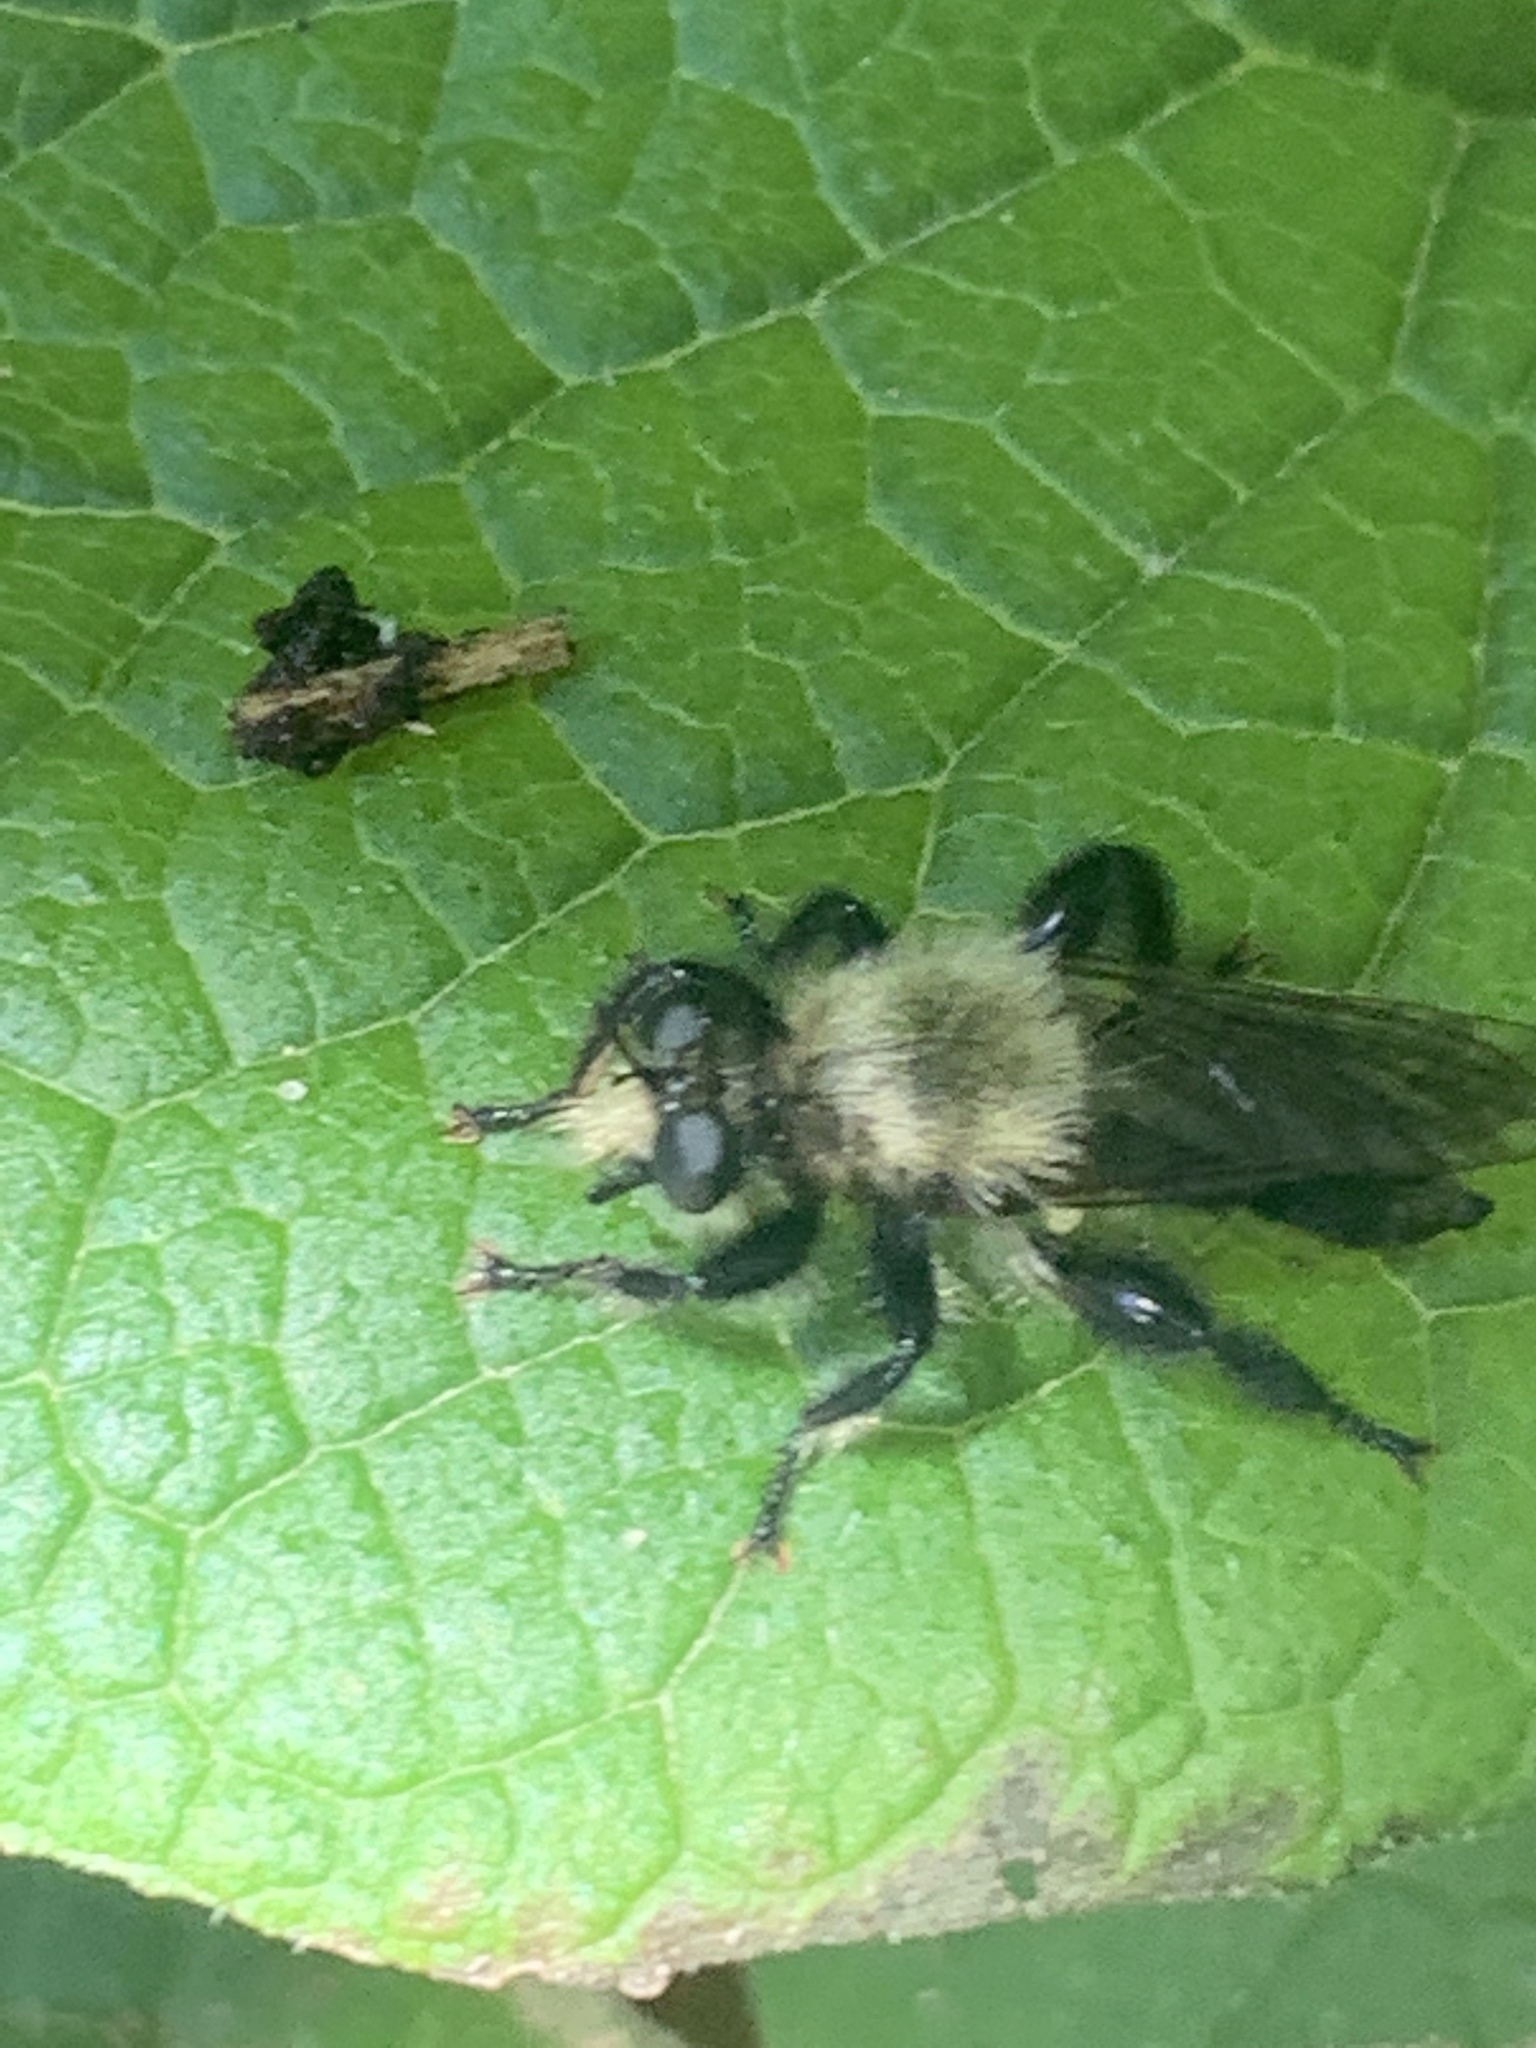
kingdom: Animalia
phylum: Arthropoda
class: Insecta
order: Diptera
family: Asilidae
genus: Laphria
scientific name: Laphria flavicollis
